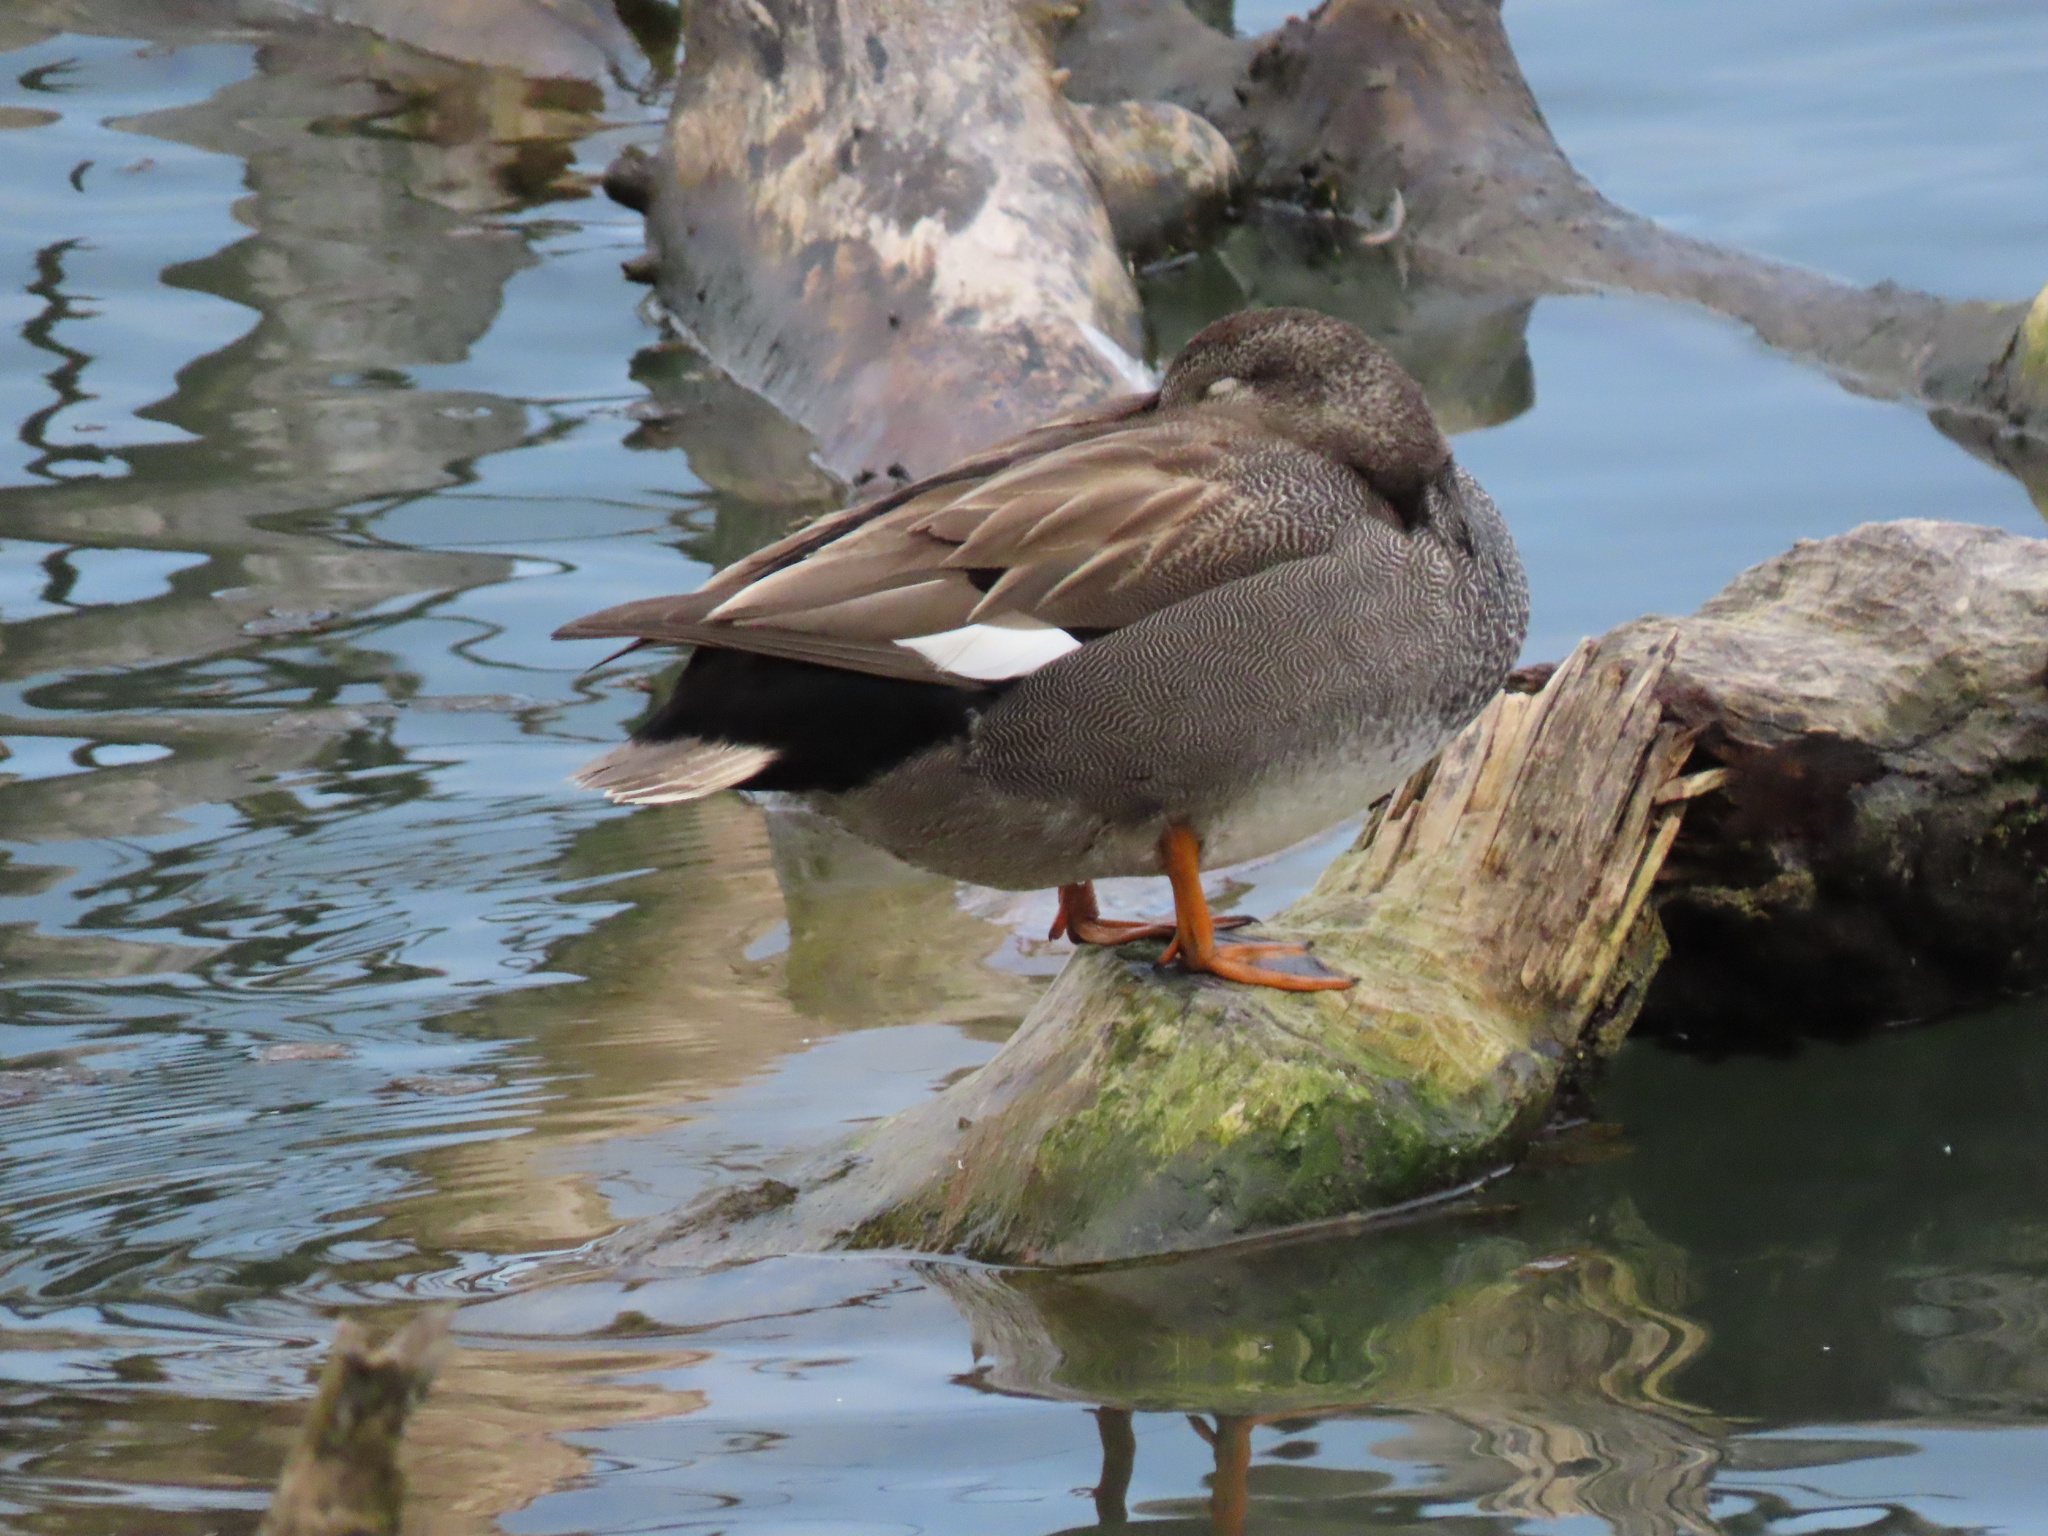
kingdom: Animalia
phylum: Chordata
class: Aves
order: Anseriformes
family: Anatidae
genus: Mareca
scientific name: Mareca strepera
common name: Gadwall
